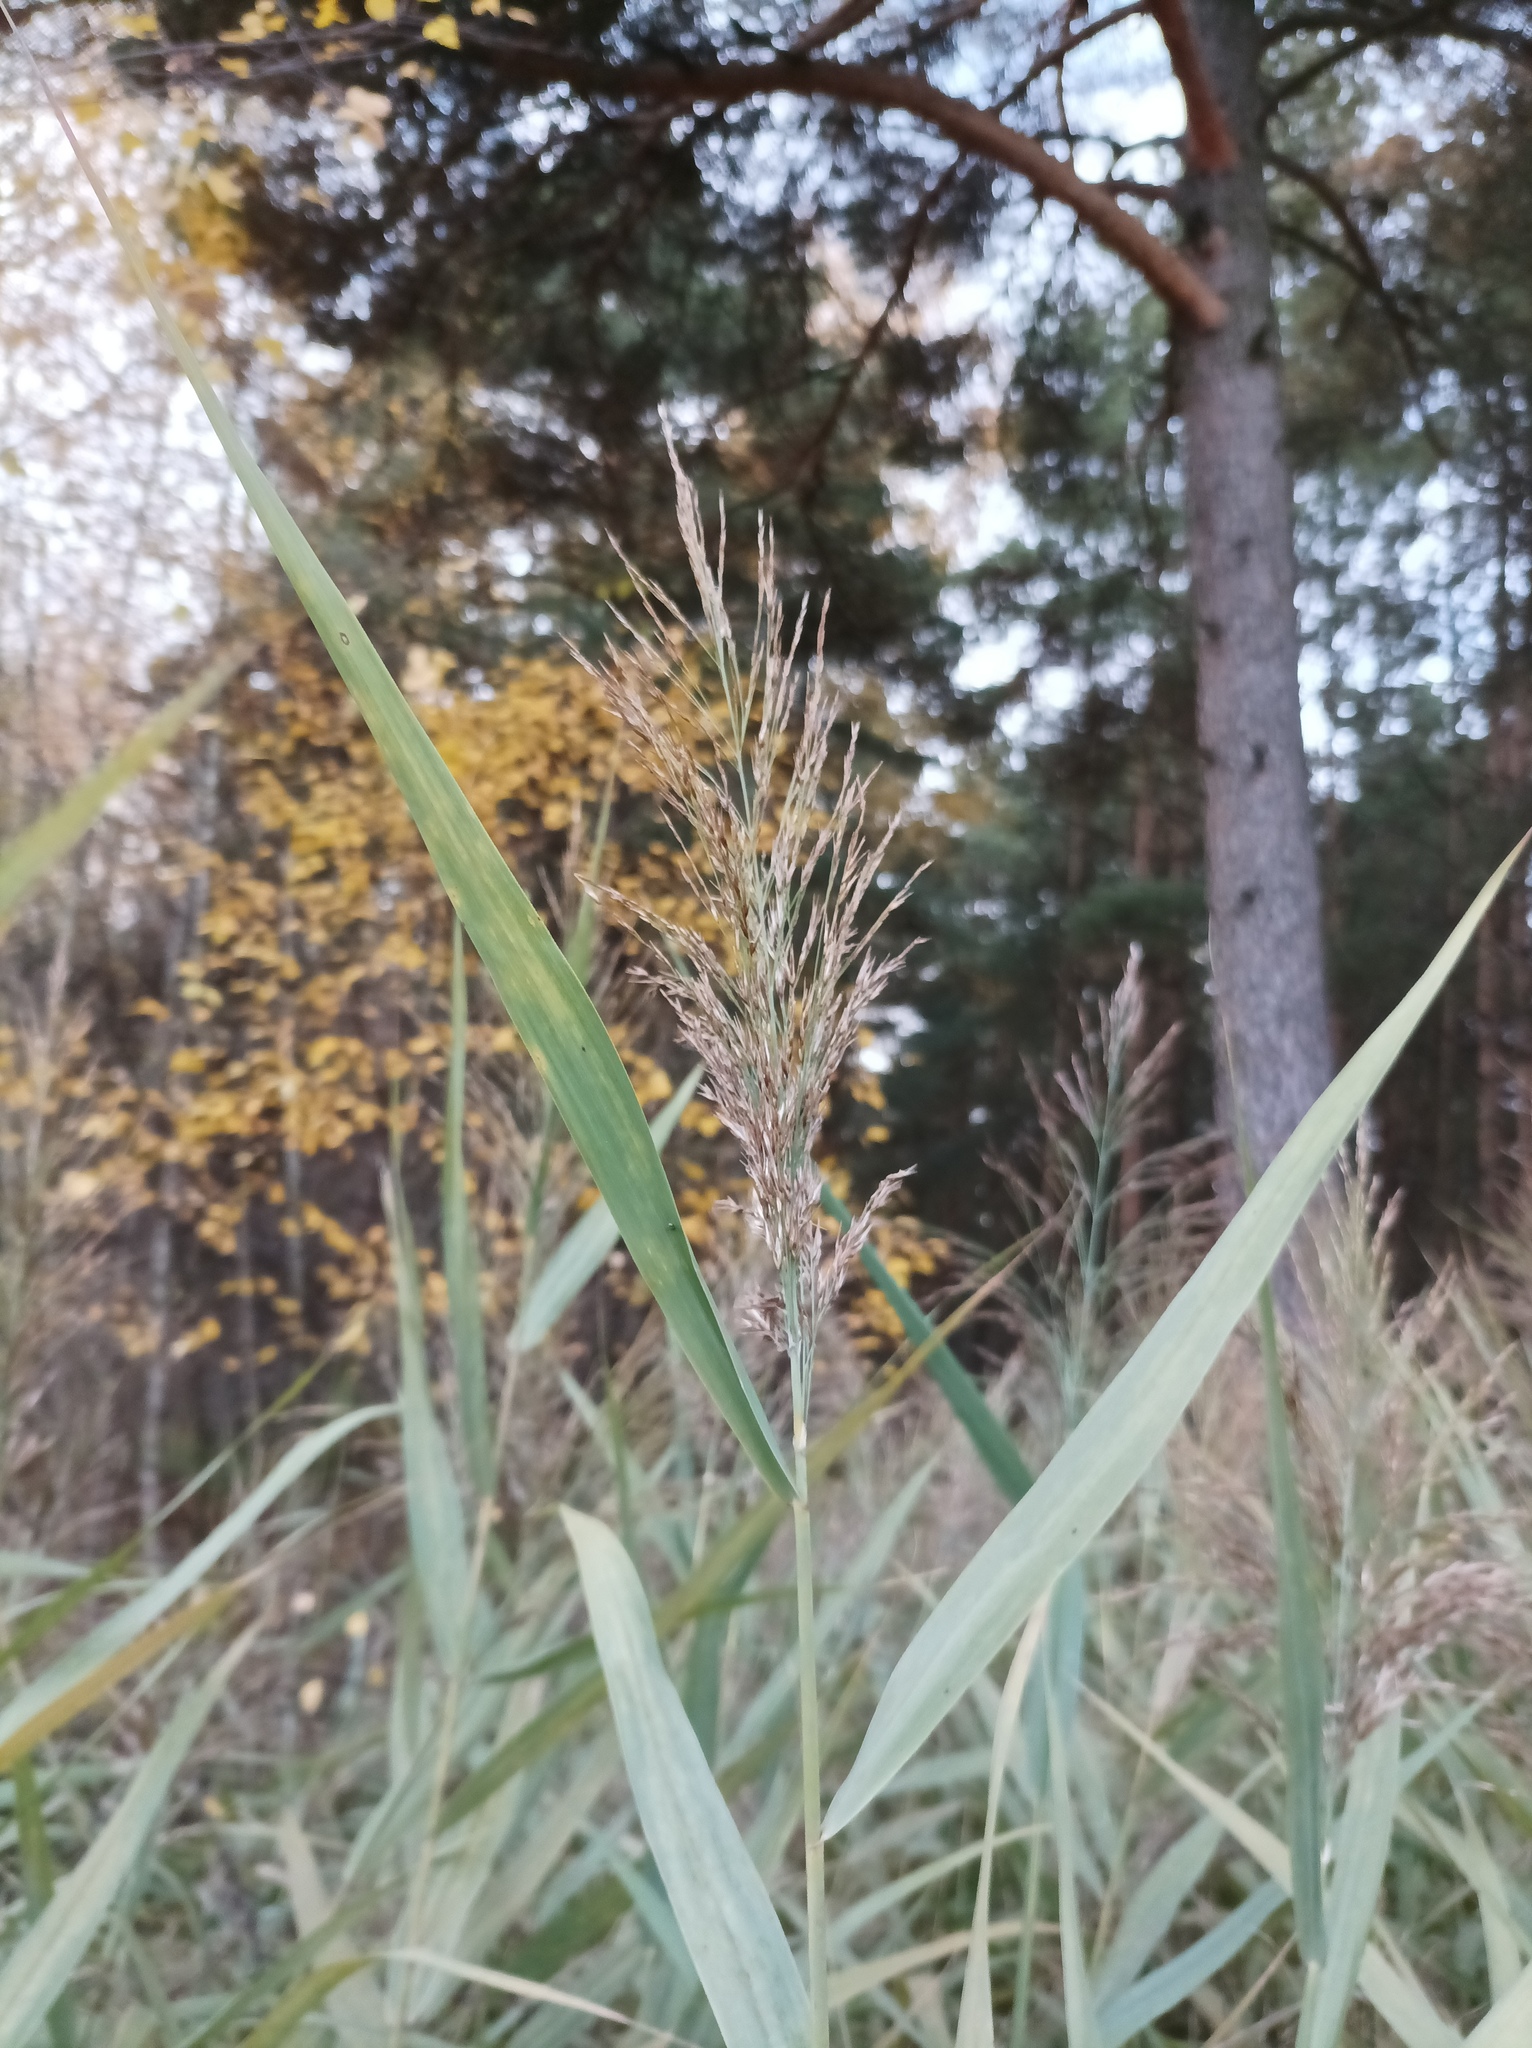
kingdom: Plantae
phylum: Tracheophyta
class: Liliopsida
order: Poales
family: Poaceae
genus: Phragmites
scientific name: Phragmites australis
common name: Common reed
